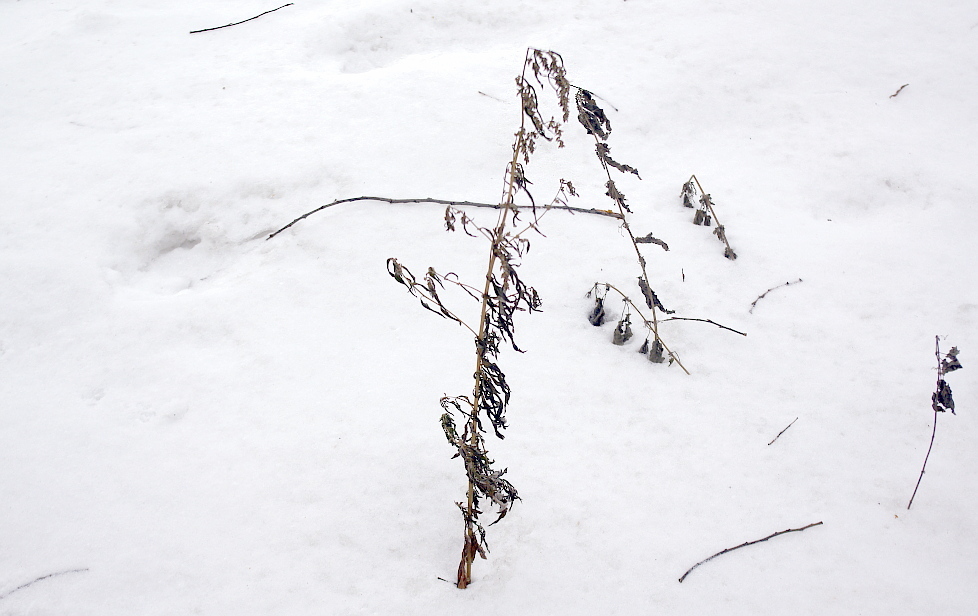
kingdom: Plantae
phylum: Tracheophyta
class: Magnoliopsida
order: Asterales
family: Asteraceae
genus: Artemisia
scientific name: Artemisia vulgaris
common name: Mugwort
